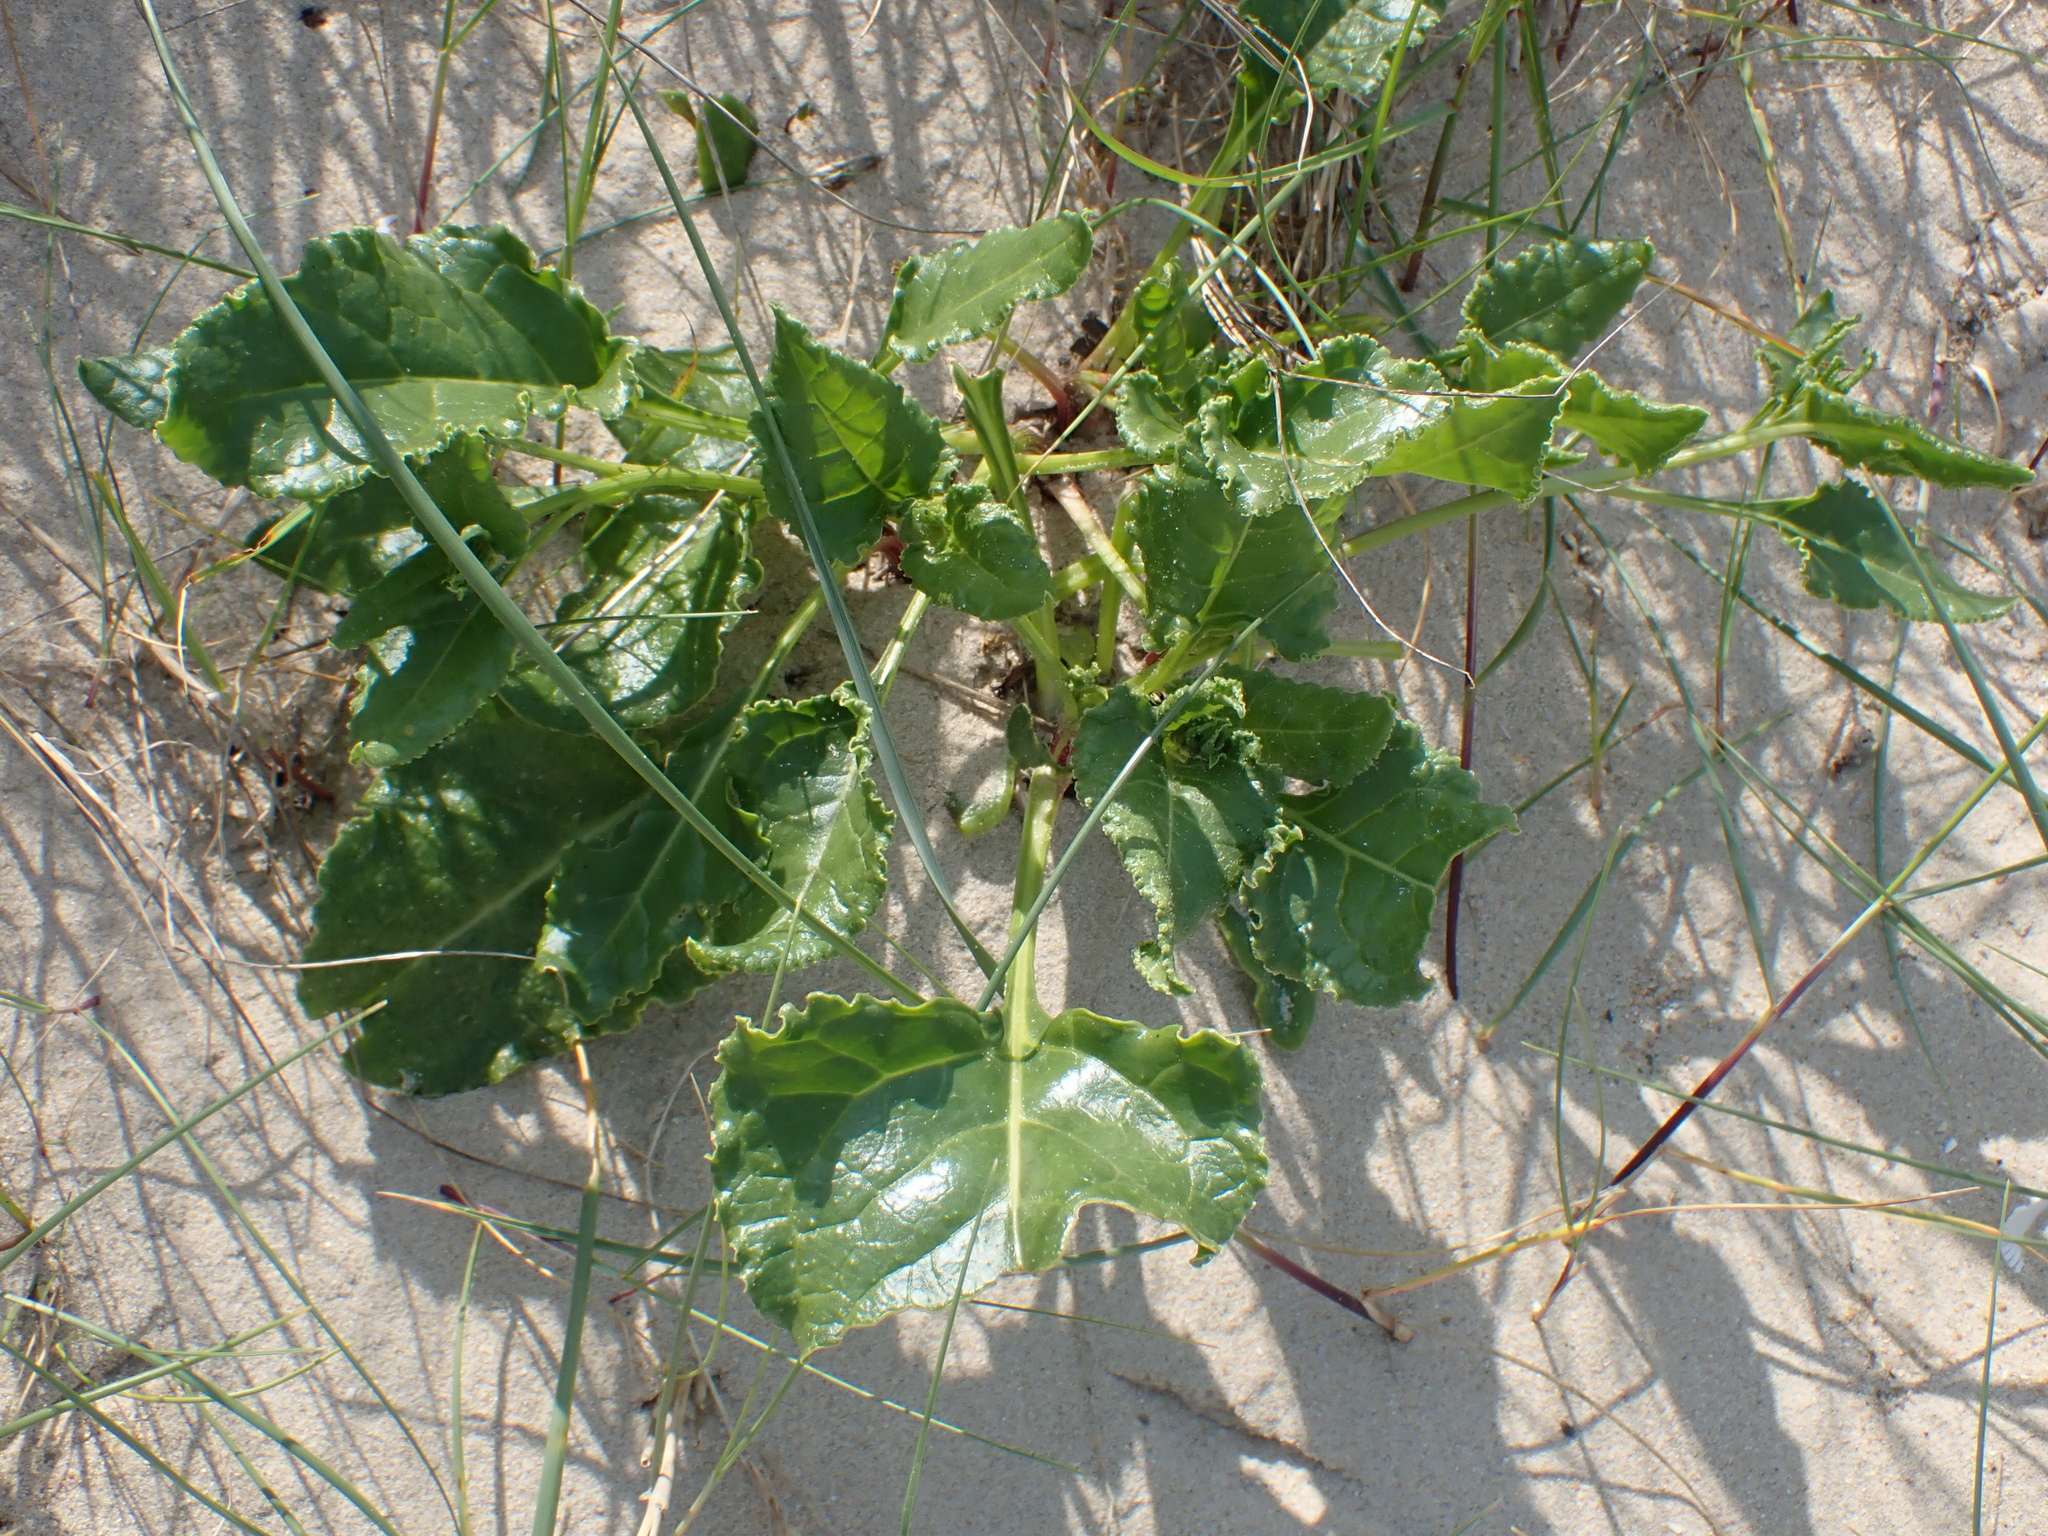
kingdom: Plantae
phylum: Tracheophyta
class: Magnoliopsida
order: Caryophyllales
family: Amaranthaceae
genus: Beta
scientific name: Beta vulgaris
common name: Beet
